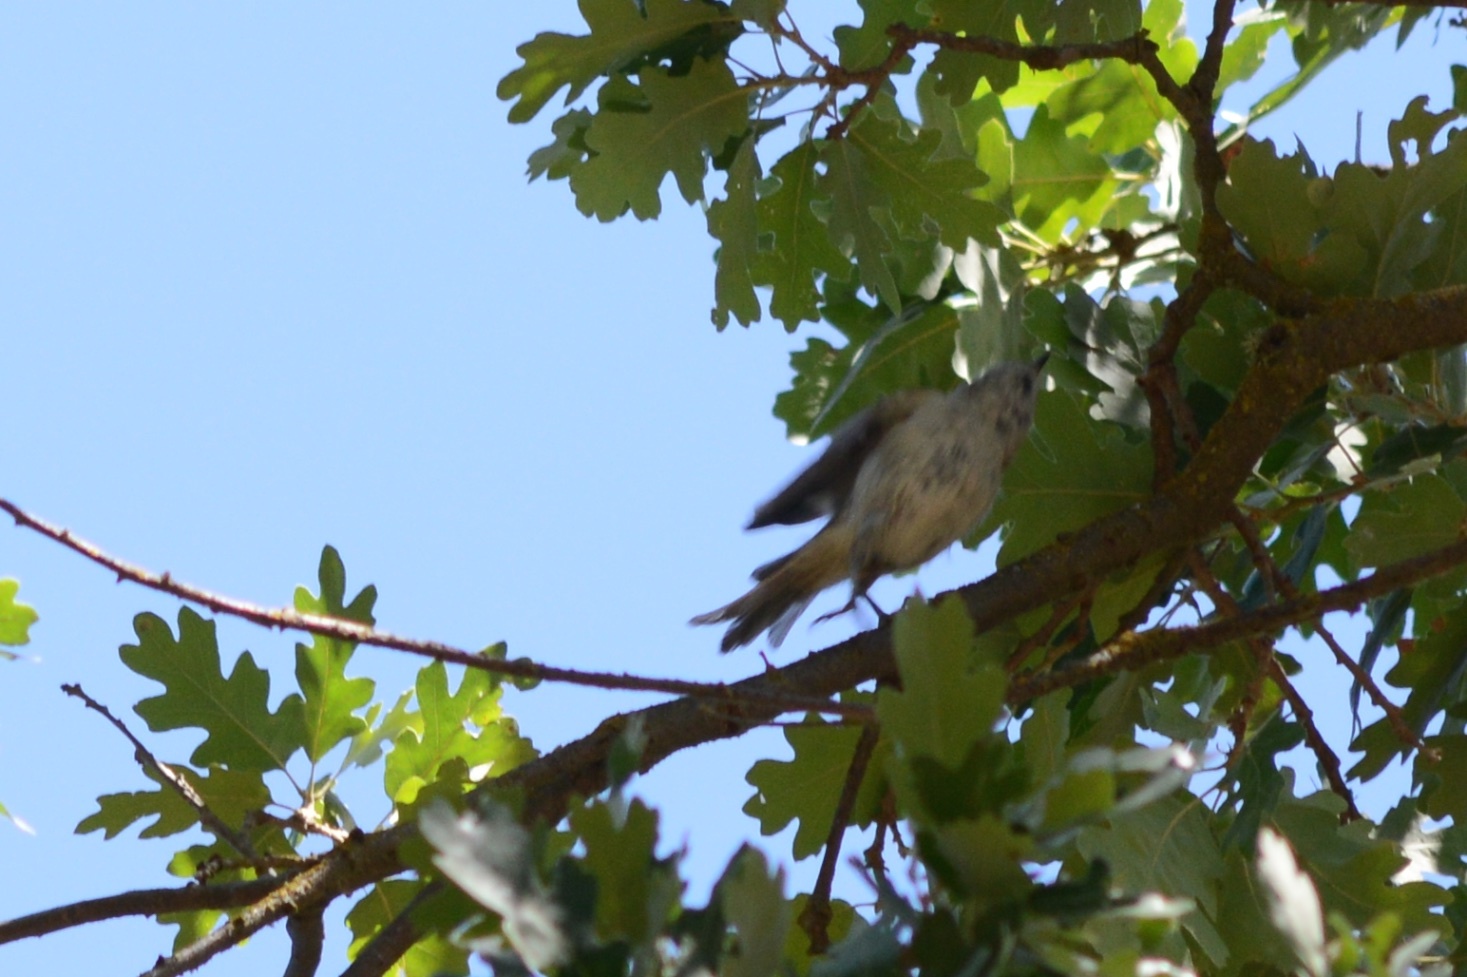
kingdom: Animalia
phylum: Chordata
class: Aves
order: Passeriformes
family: Paridae
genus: Baeolophus
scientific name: Baeolophus inornatus
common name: Oak titmouse
